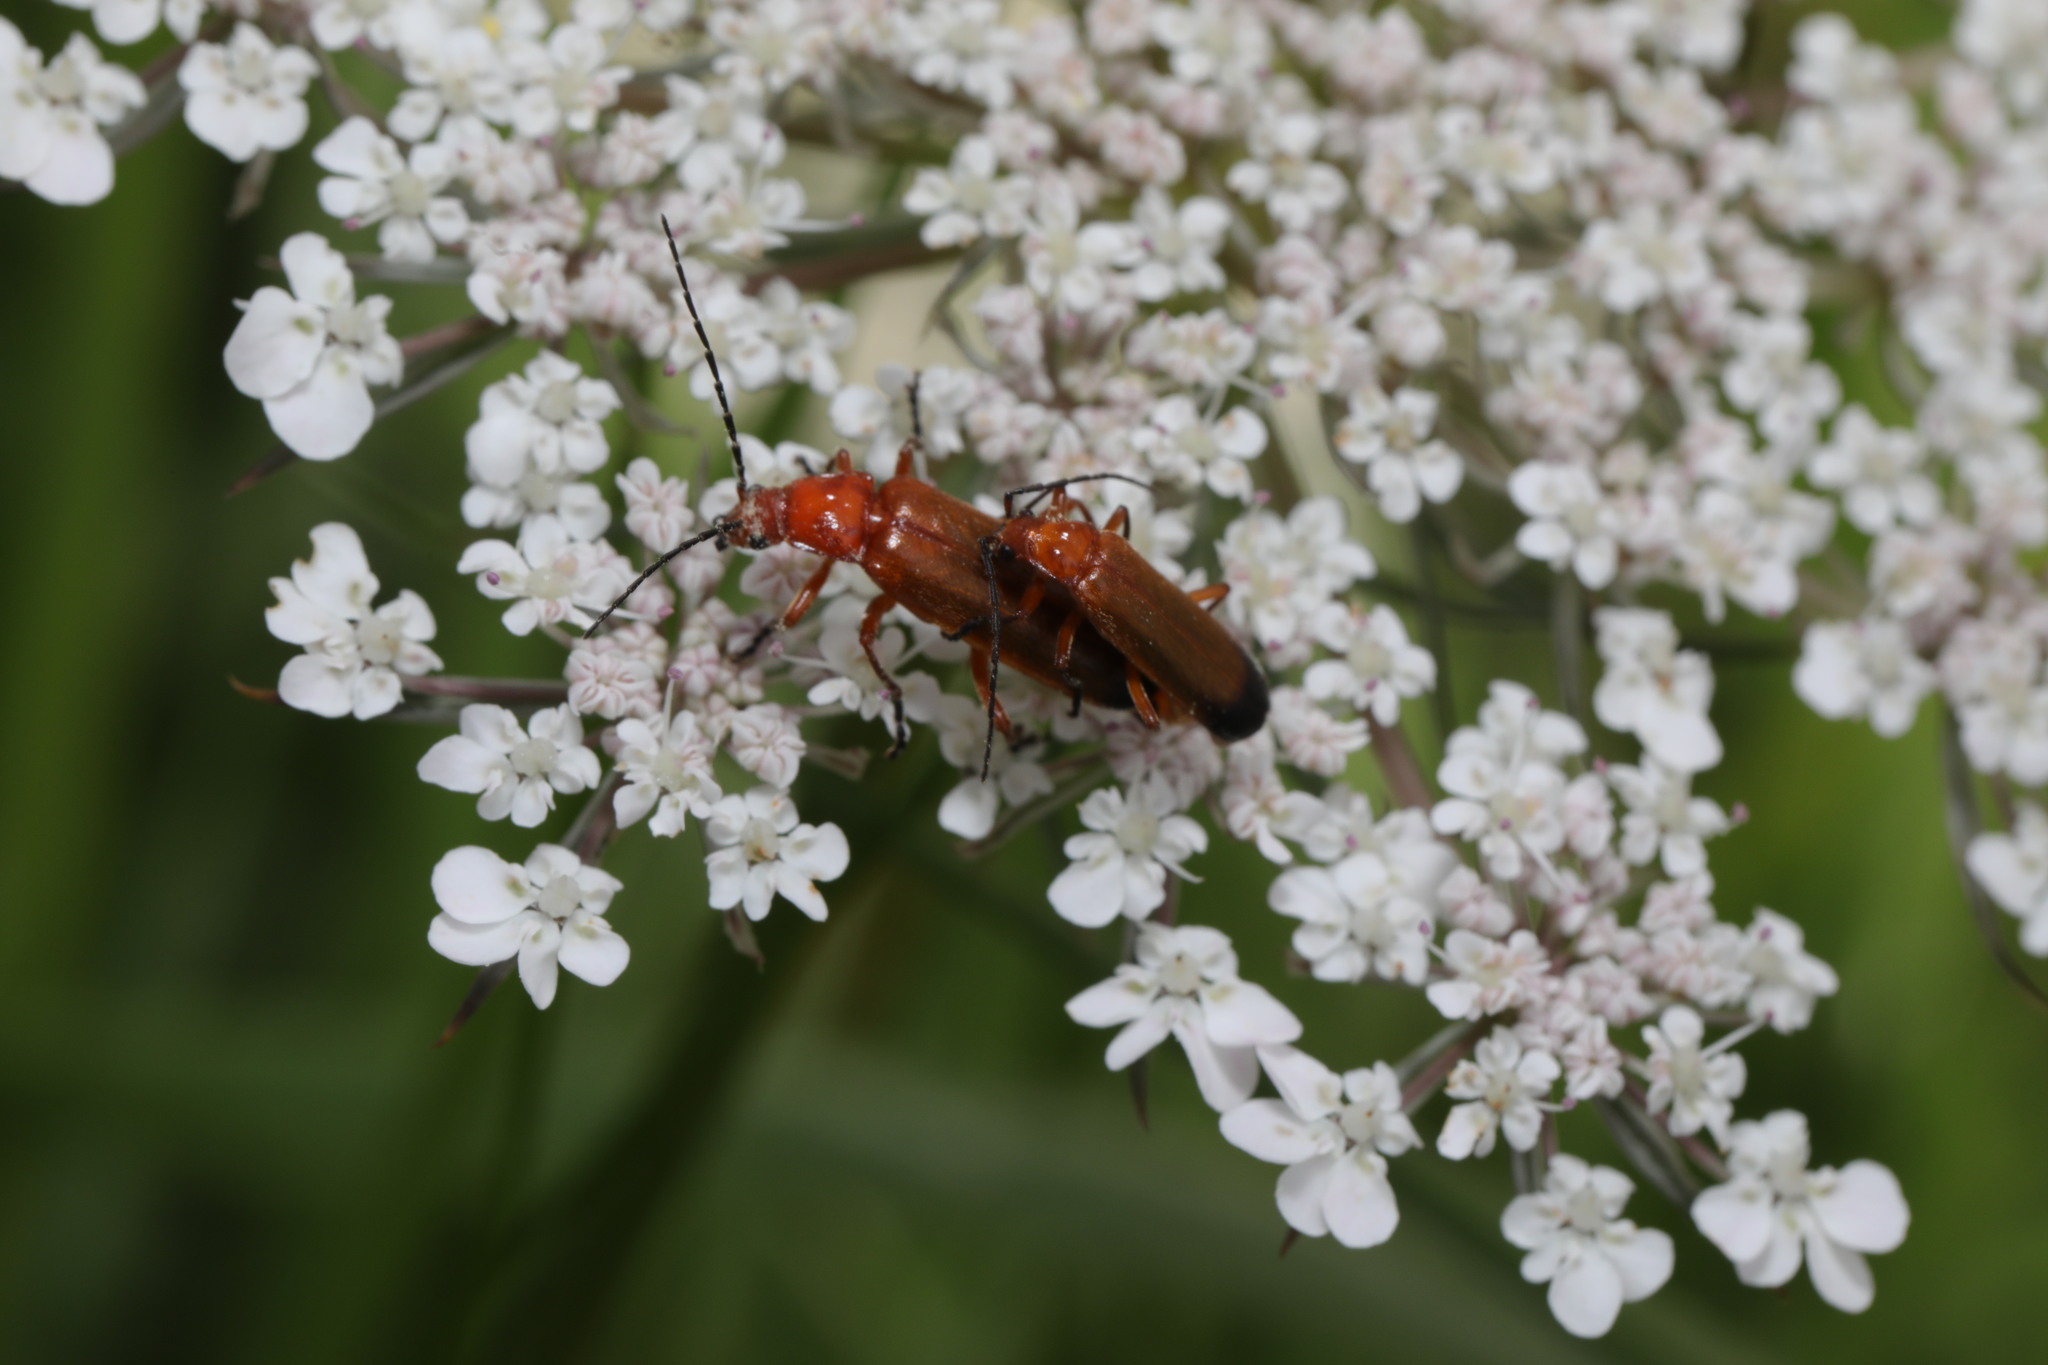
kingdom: Animalia
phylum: Arthropoda
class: Insecta
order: Coleoptera
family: Cantharidae
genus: Rhagonycha
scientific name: Rhagonycha fulva
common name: Common red soldier beetle
